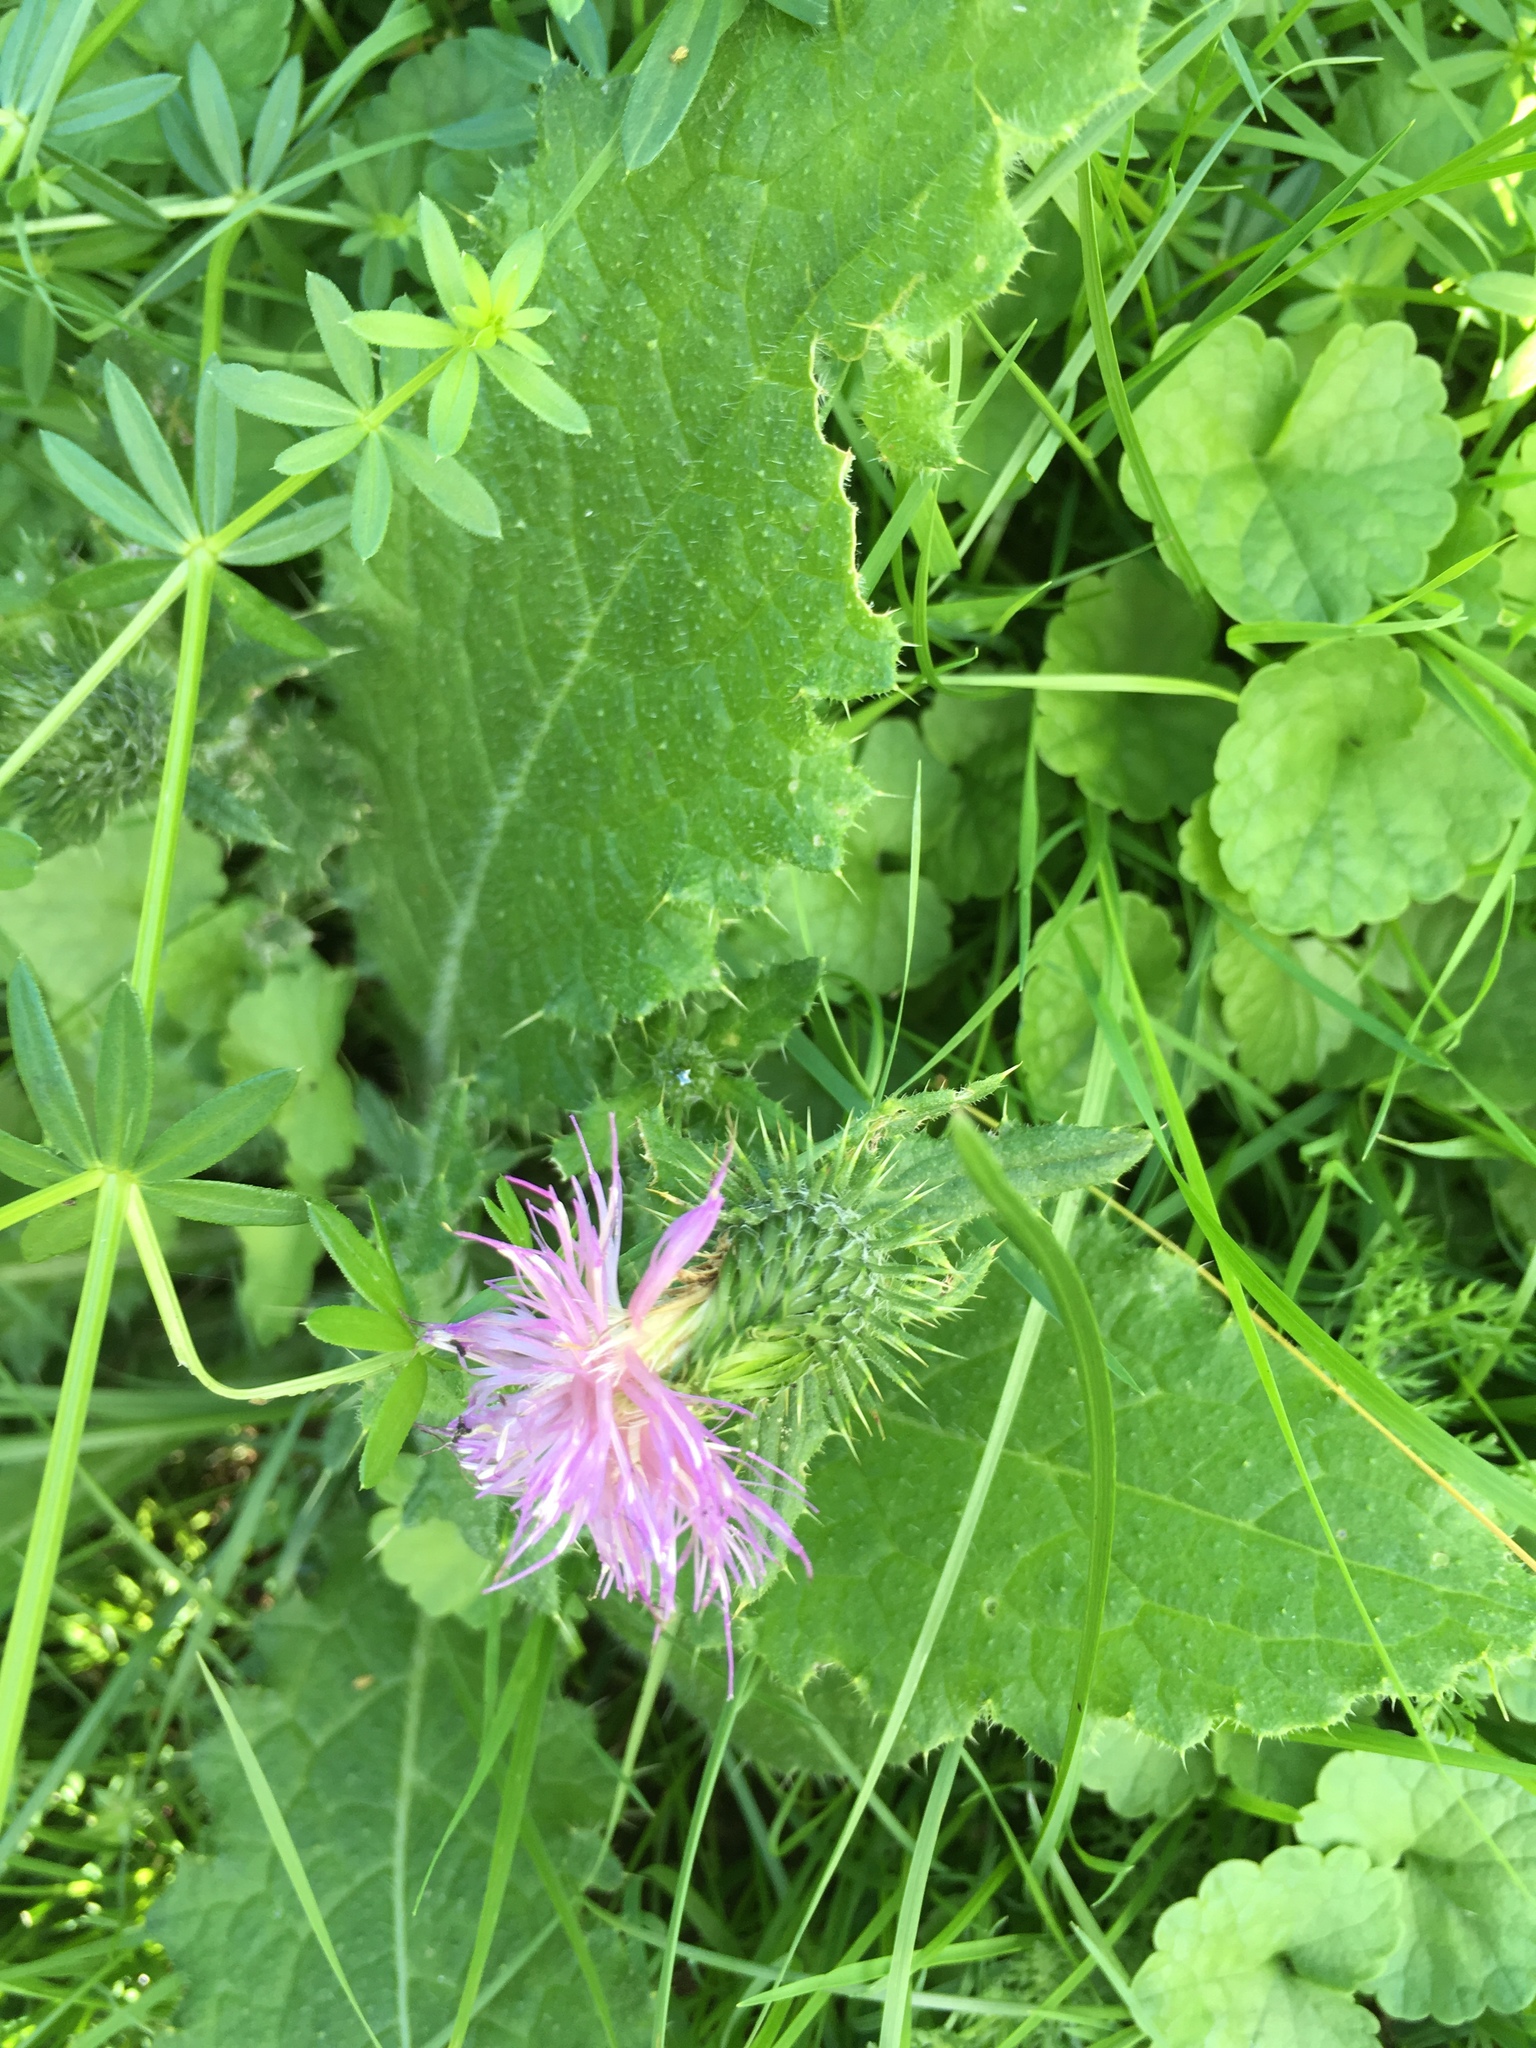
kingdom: Plantae
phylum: Tracheophyta
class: Magnoliopsida
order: Asterales
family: Asteraceae
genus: Carduus
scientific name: Carduus crispus
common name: Welted thistle
